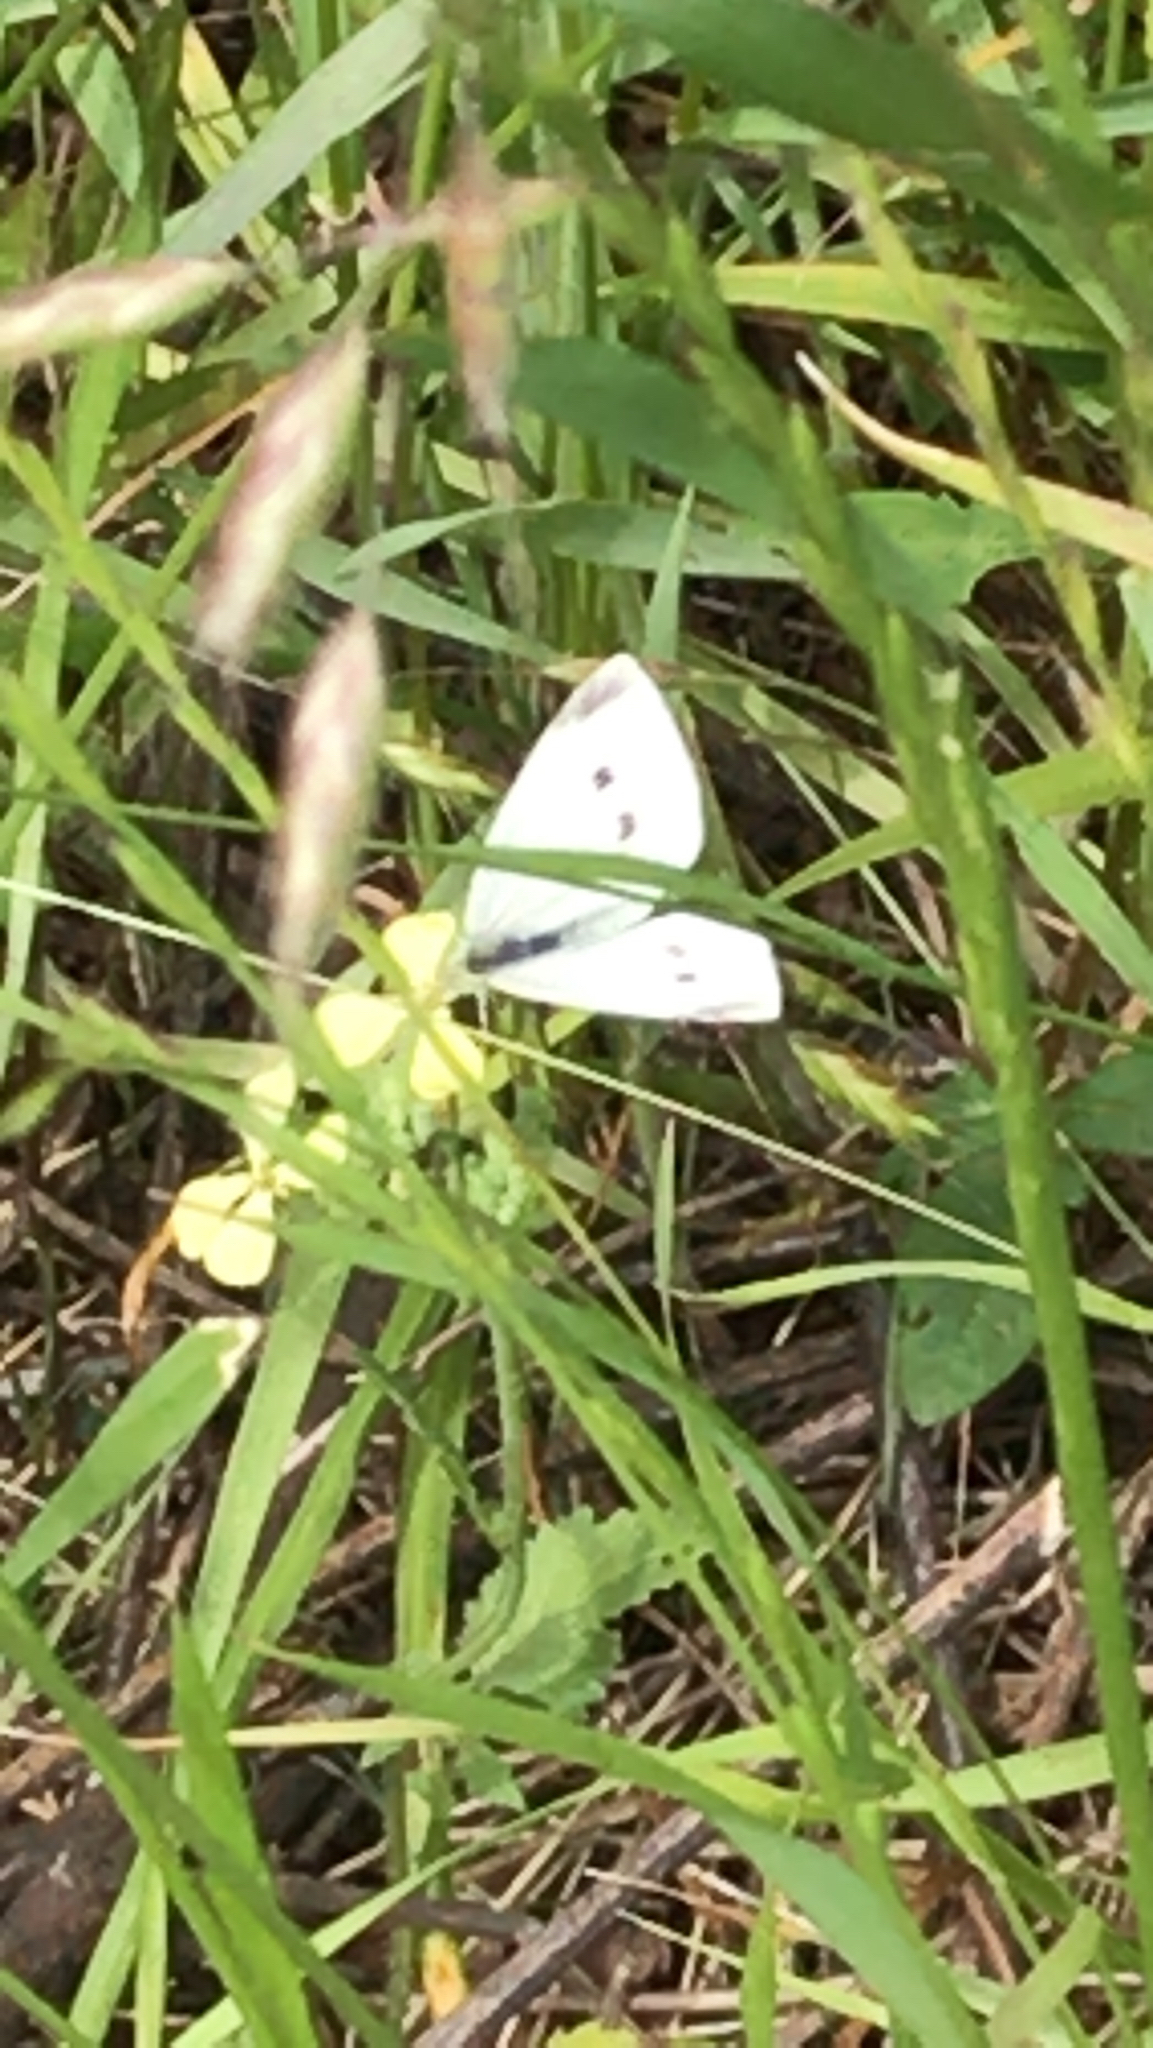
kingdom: Animalia
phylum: Arthropoda
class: Insecta
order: Lepidoptera
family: Pieridae
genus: Pieris
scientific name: Pieris rapae
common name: Small white
